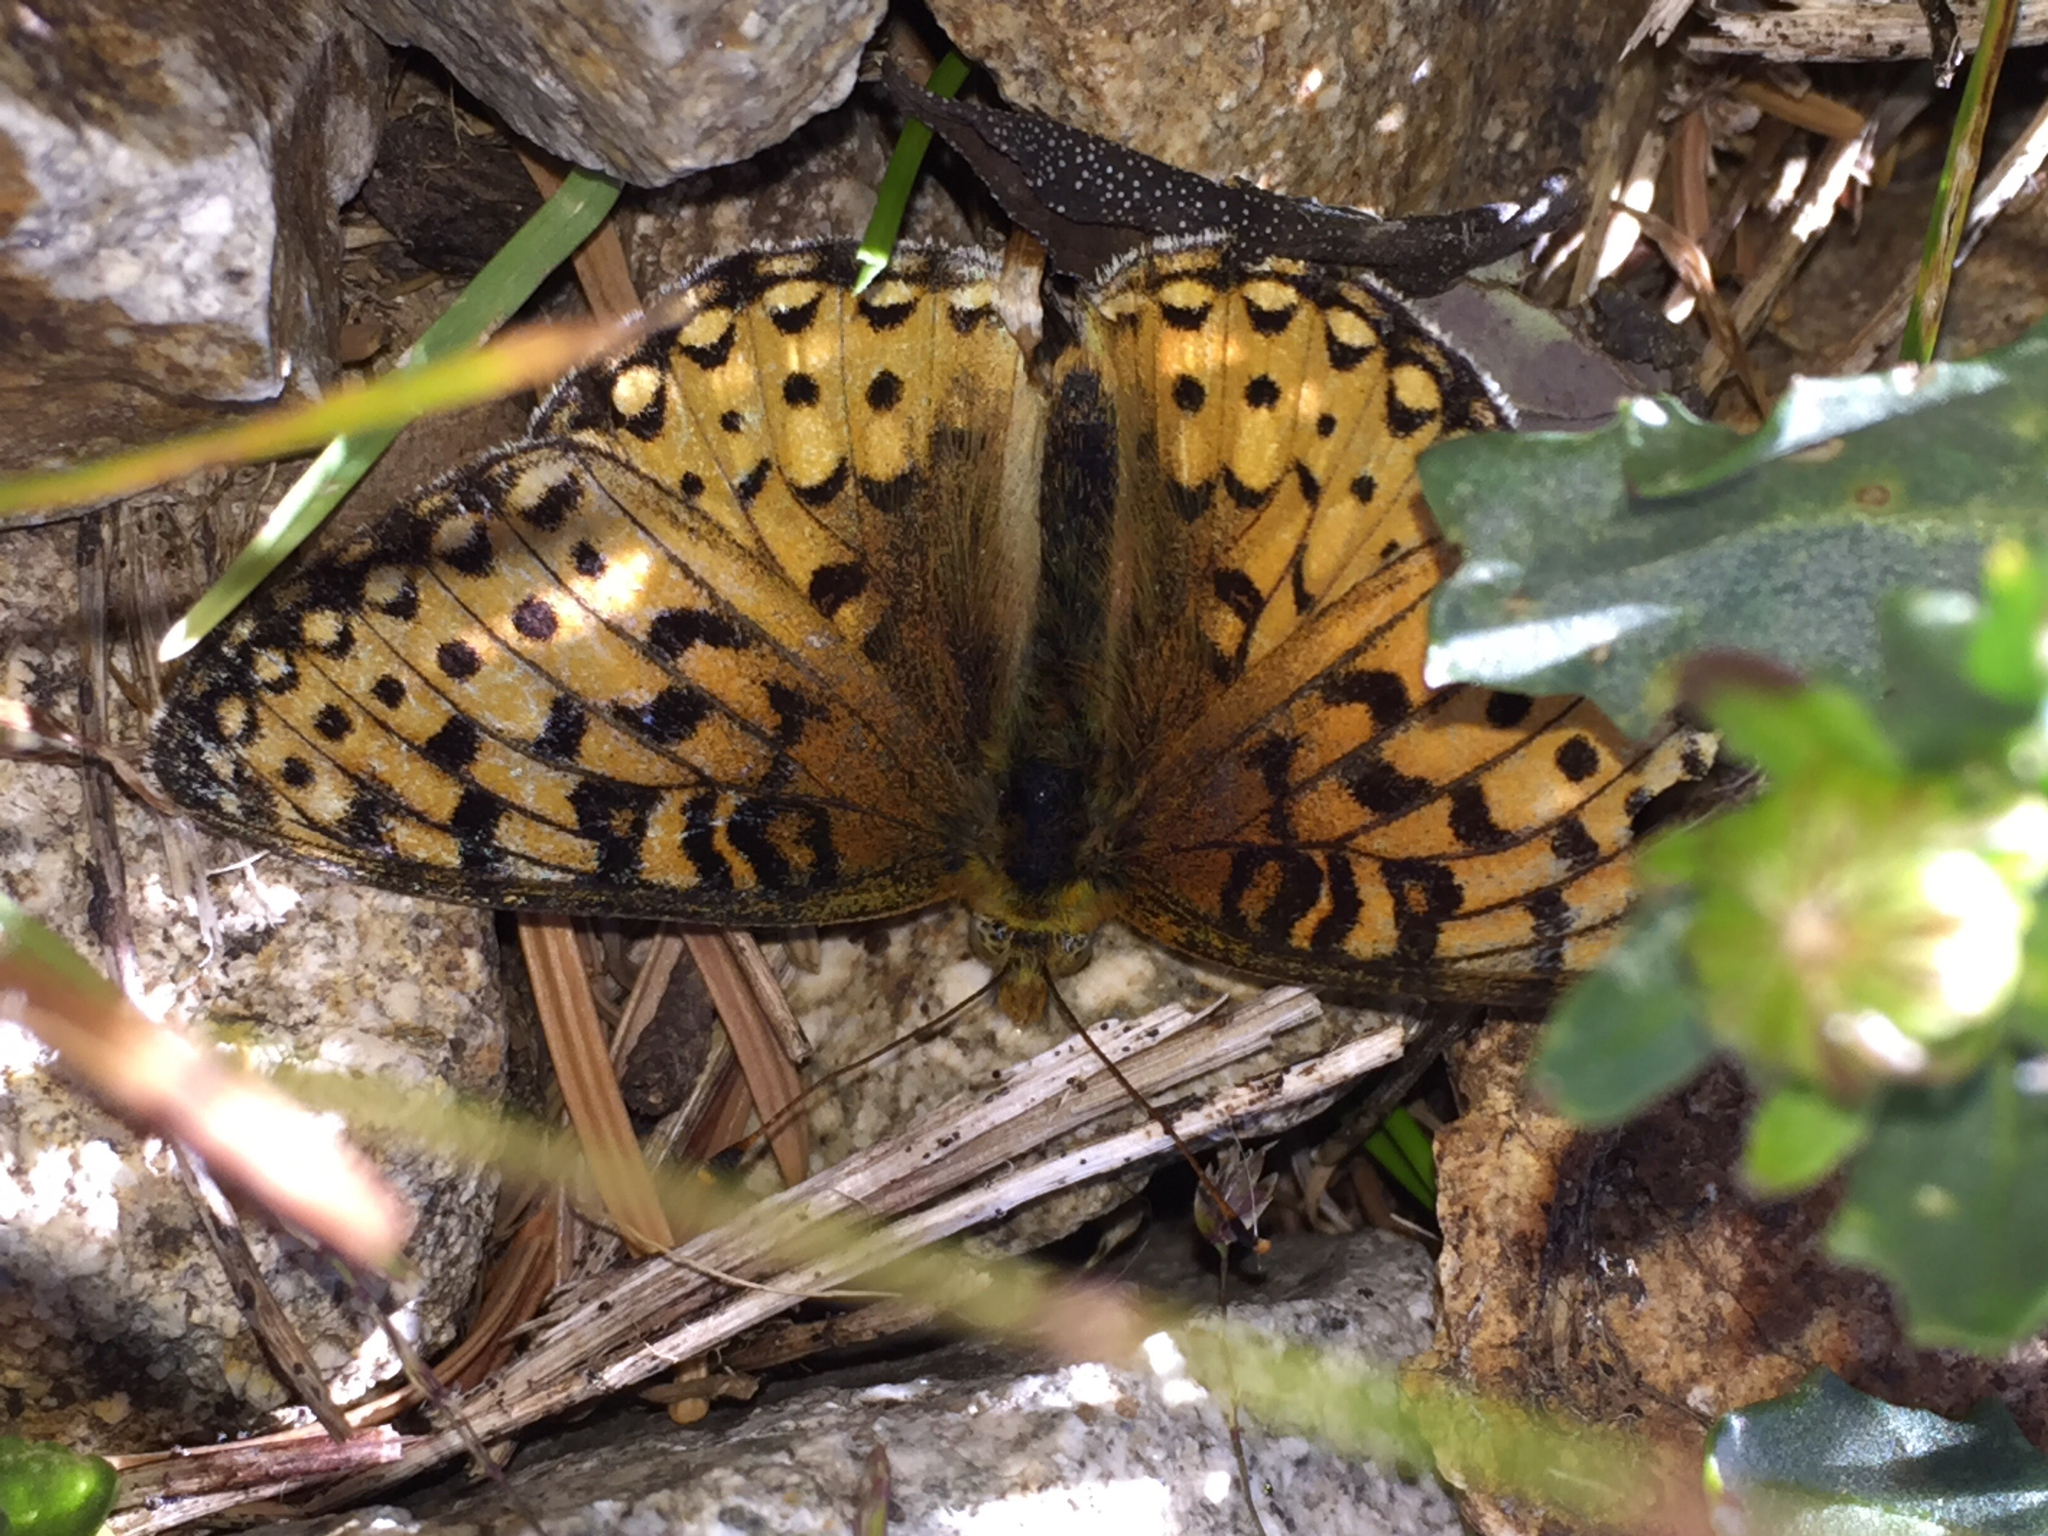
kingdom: Animalia
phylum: Arthropoda
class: Insecta
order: Lepidoptera
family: Nymphalidae
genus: Speyeria
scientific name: Speyeria mormonia
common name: Mormon fritillary
